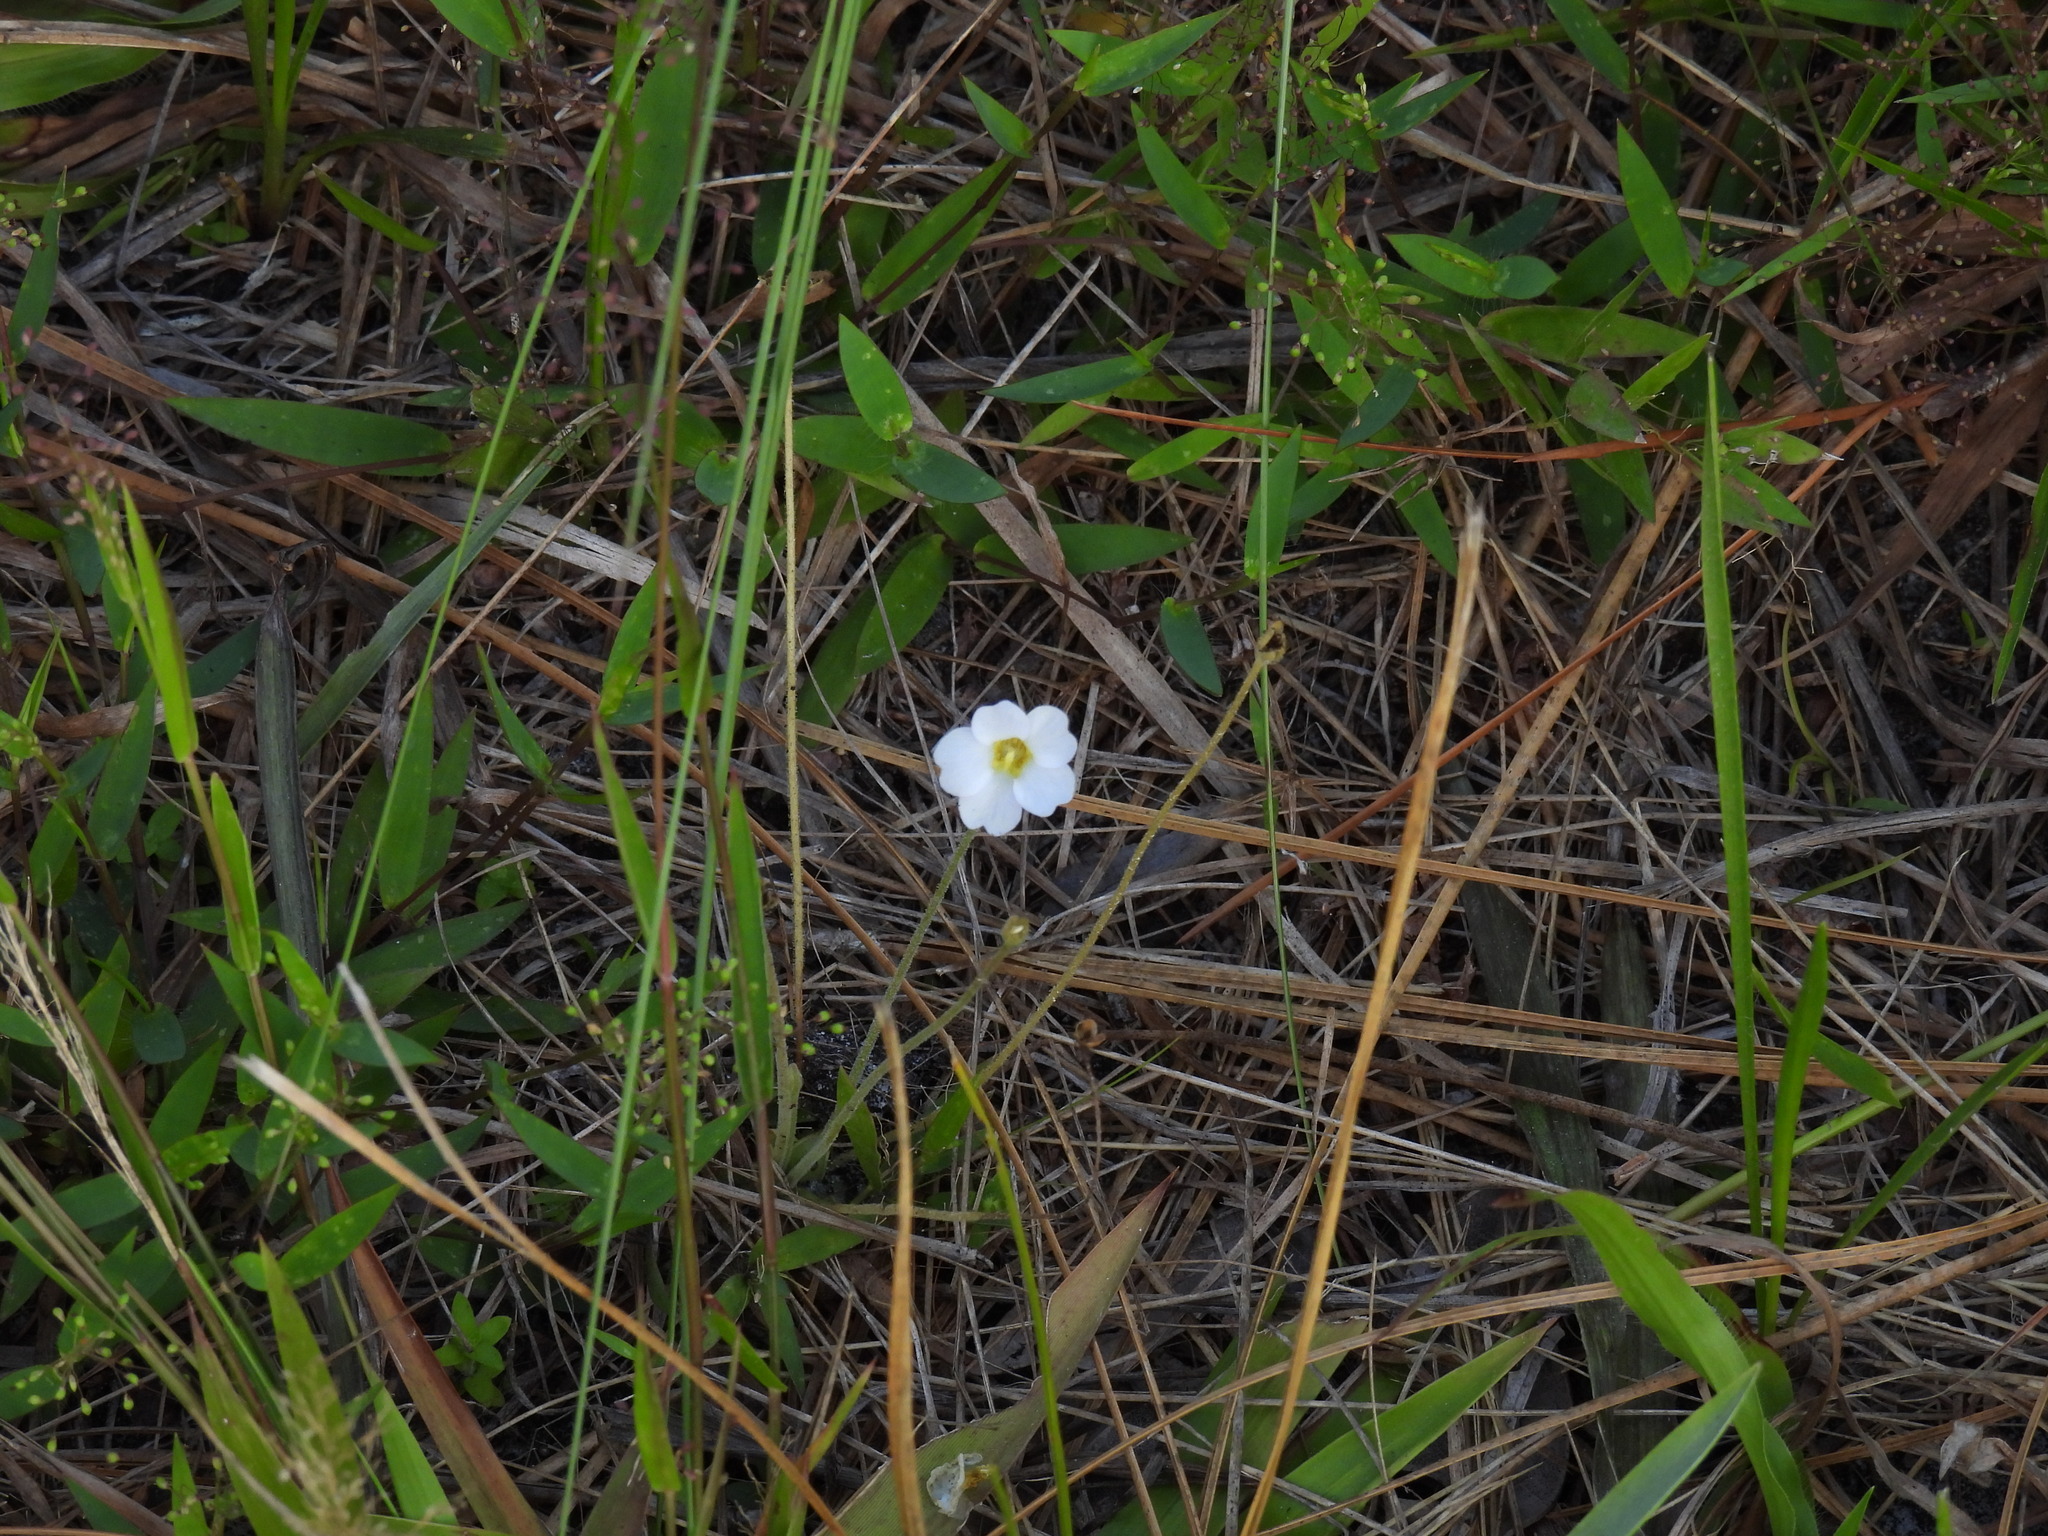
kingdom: Plantae
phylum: Tracheophyta
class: Magnoliopsida
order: Lamiales
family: Lentibulariaceae
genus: Pinguicula
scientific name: Pinguicula pumila
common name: Small butterwort
